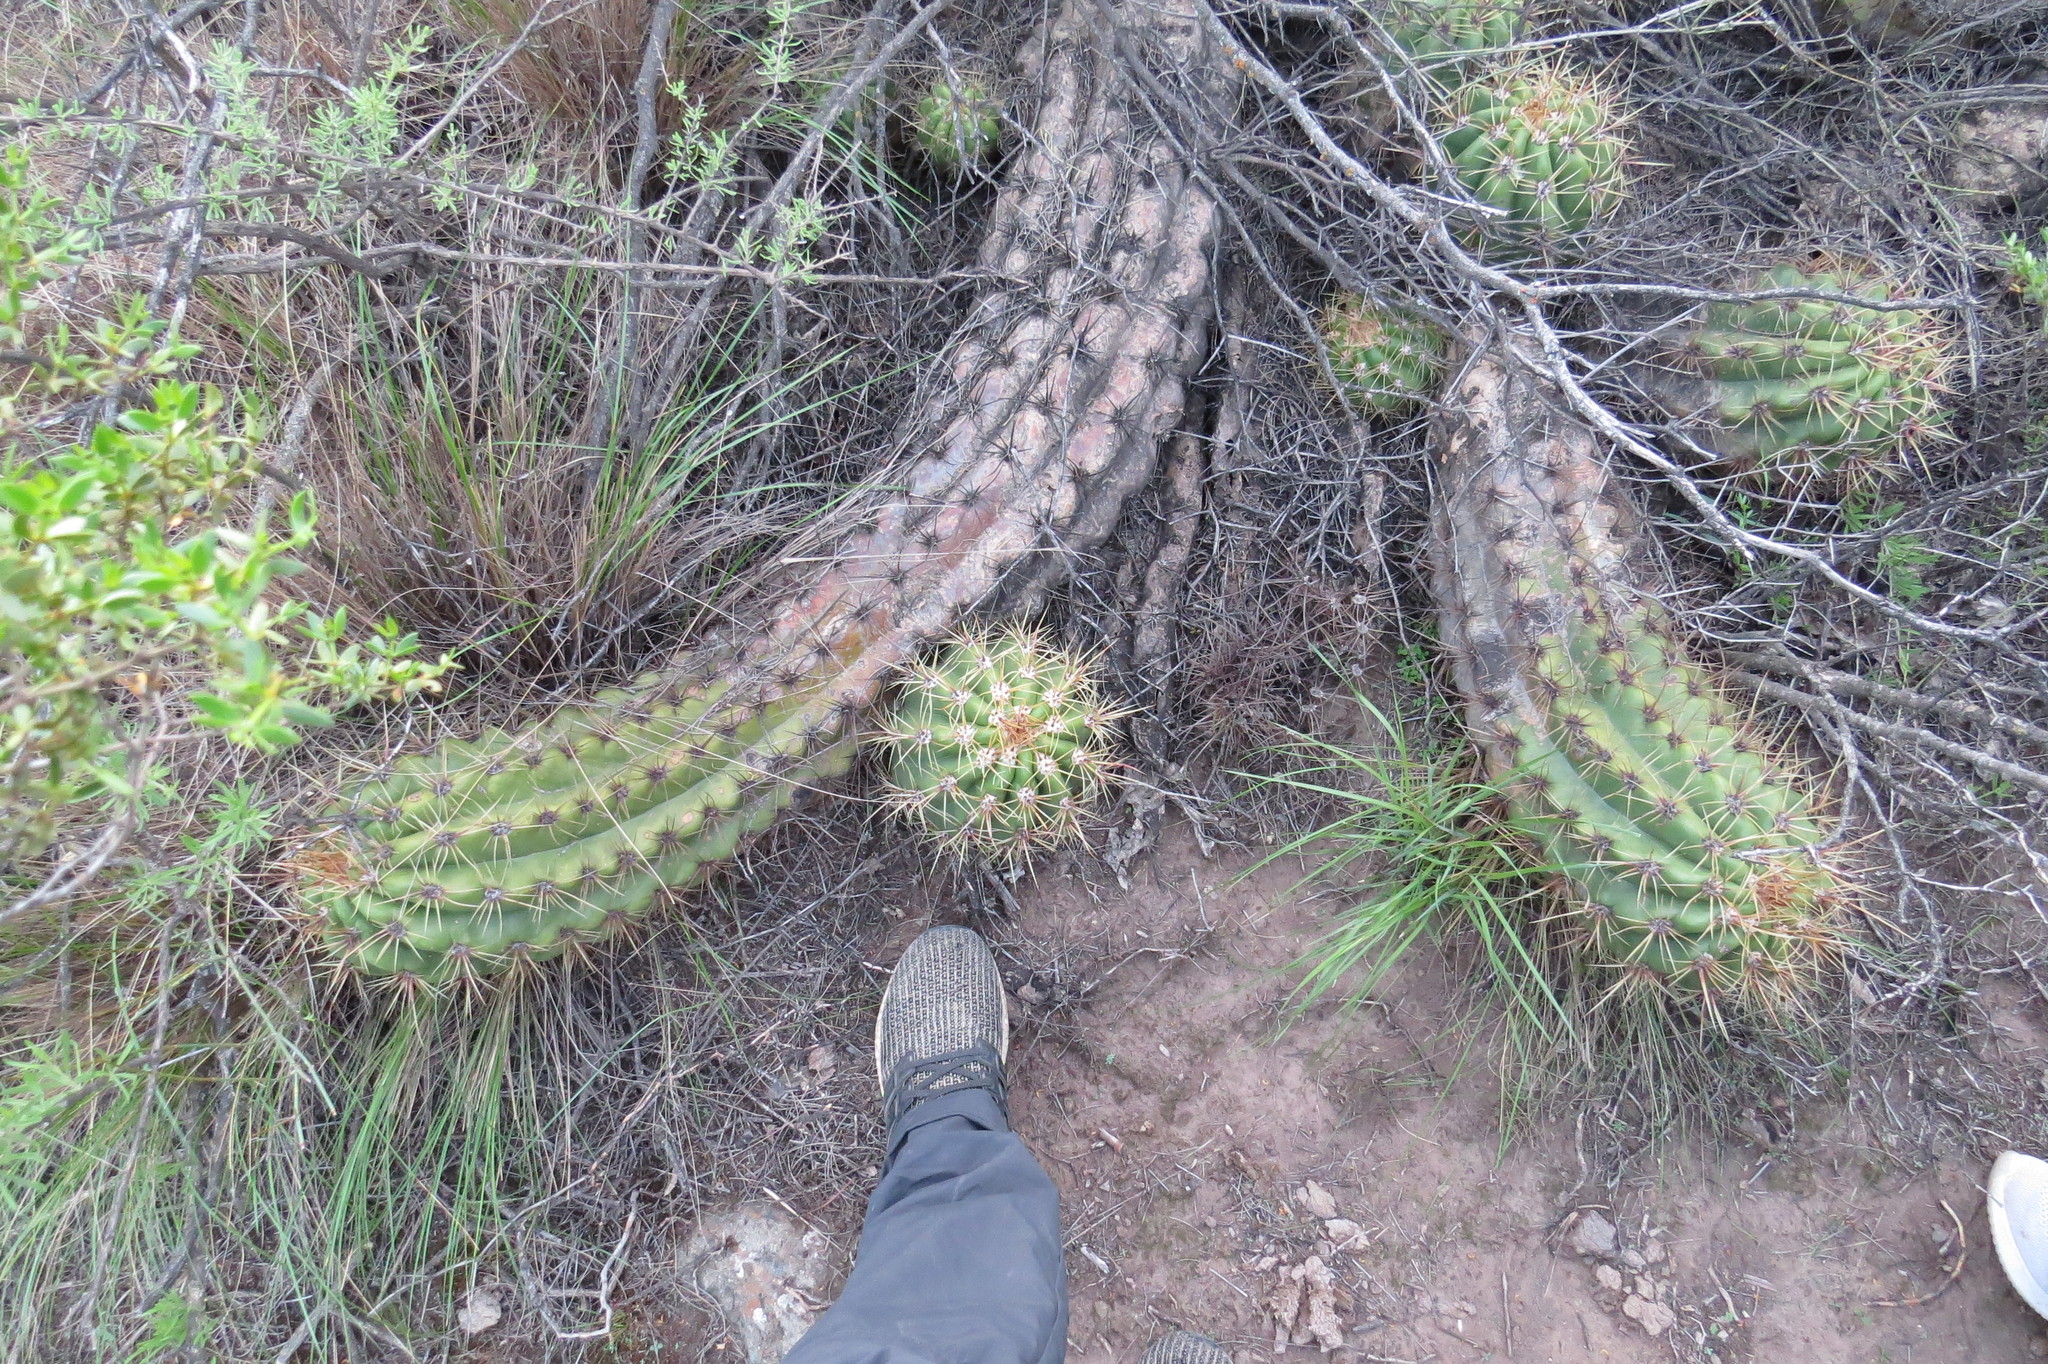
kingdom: Plantae
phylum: Tracheophyta
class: Magnoliopsida
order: Caryophyllales
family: Cactaceae
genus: Soehrensia
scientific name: Soehrensia candicans
